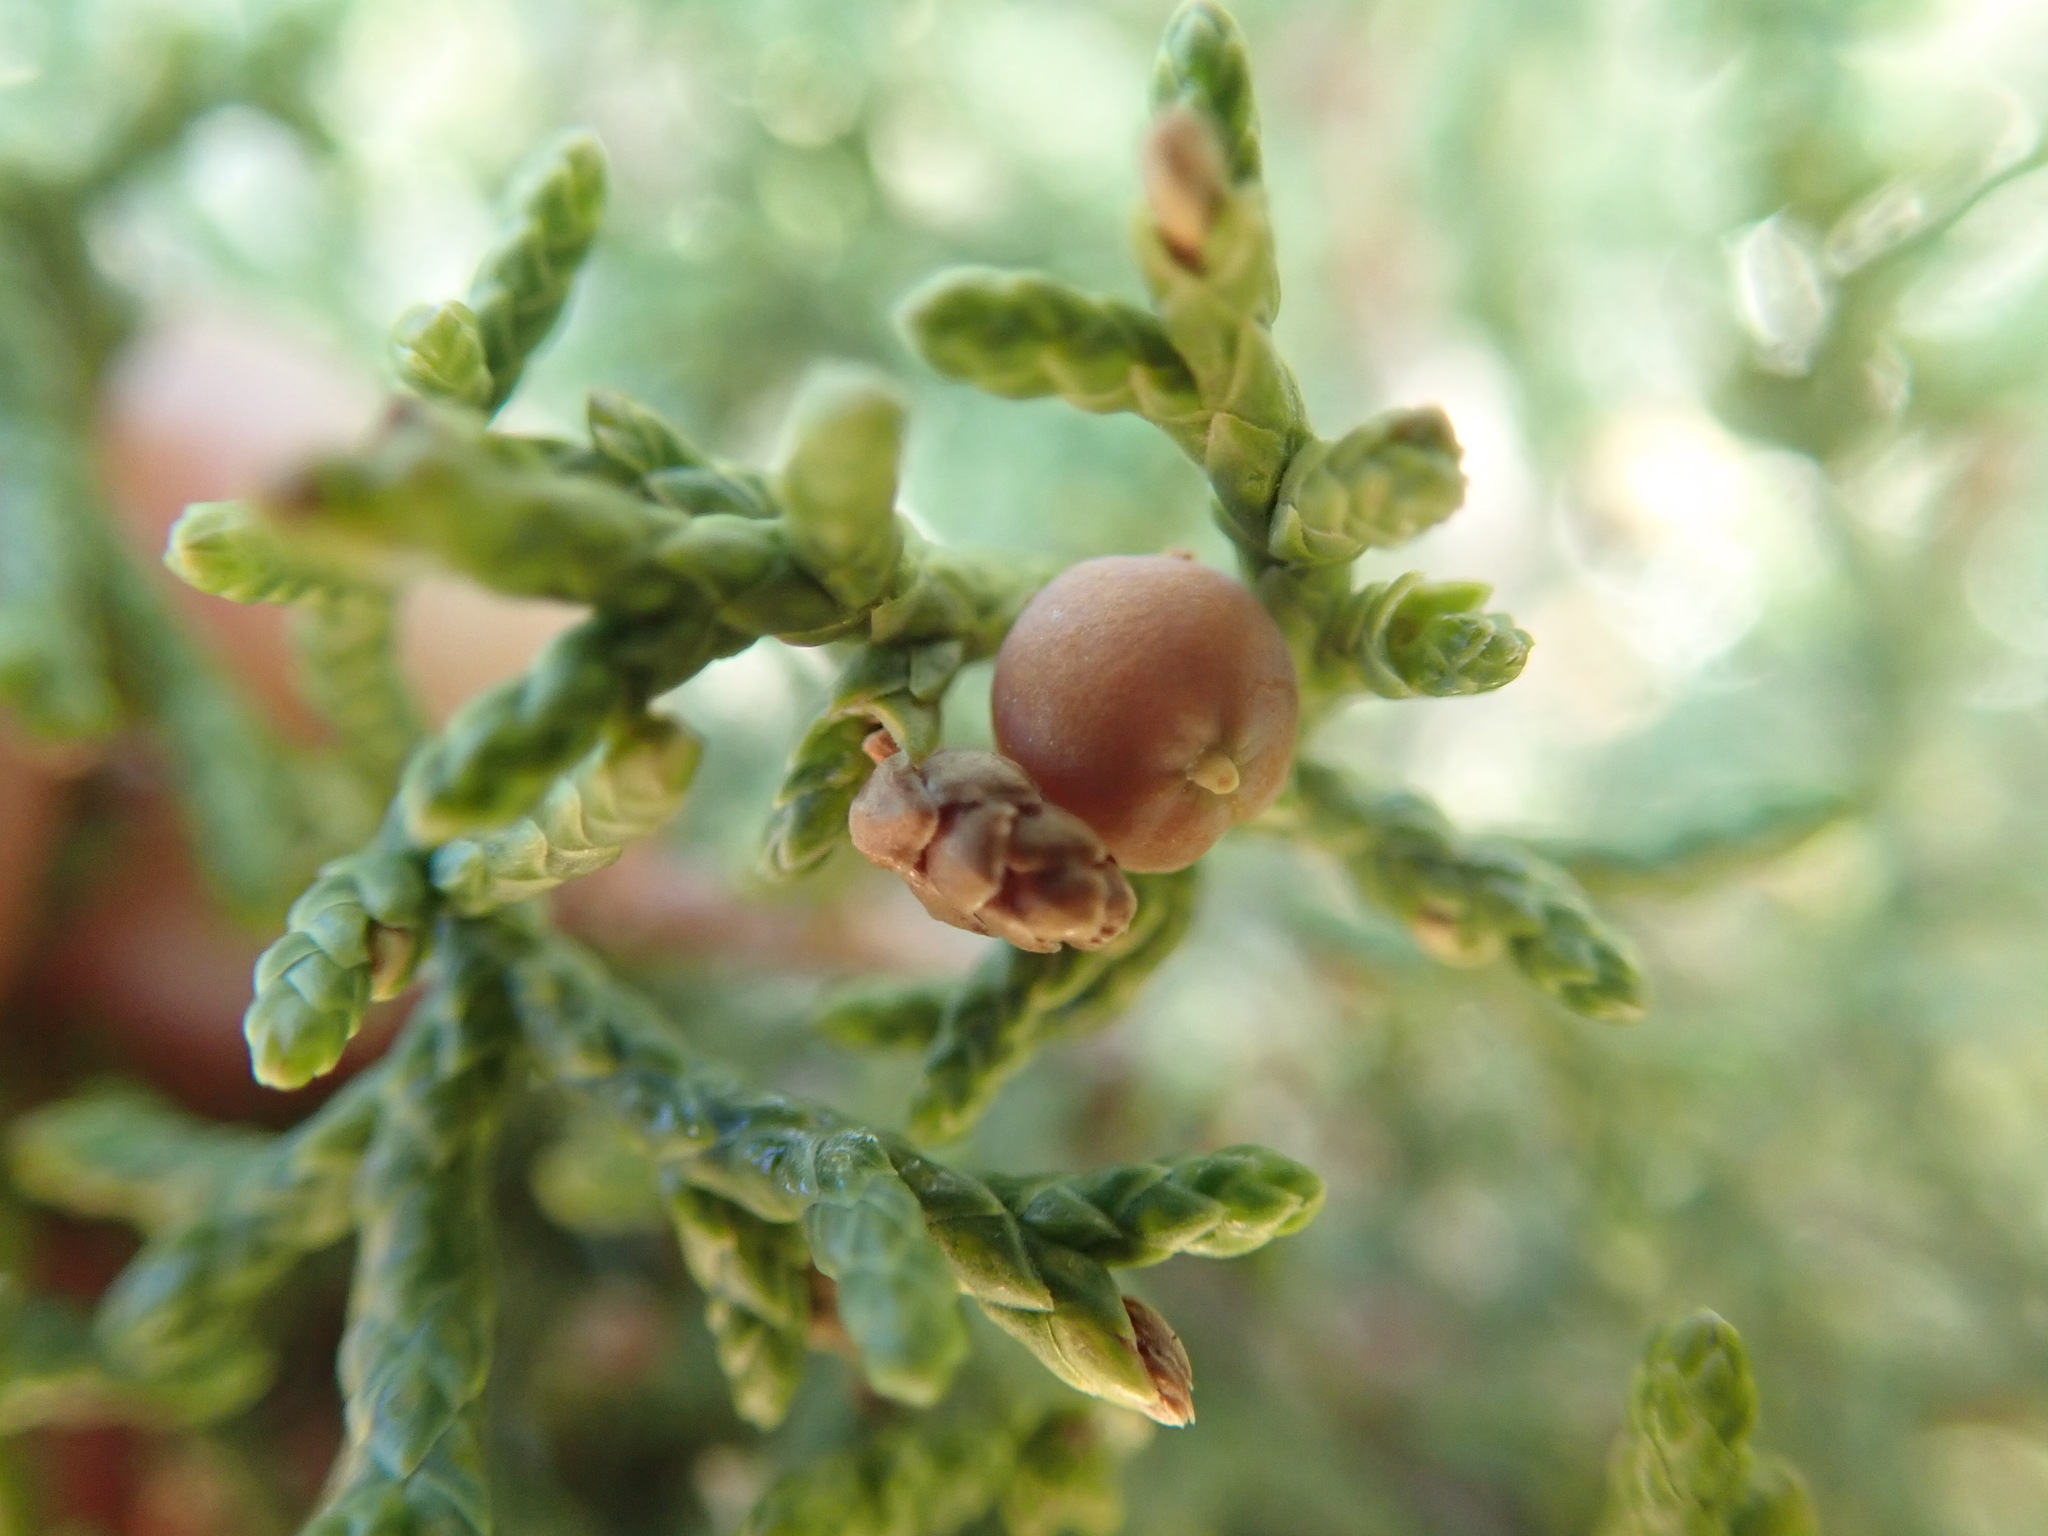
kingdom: Plantae
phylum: Tracheophyta
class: Pinopsida
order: Pinales
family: Cupressaceae
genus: Juniperus
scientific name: Juniperus californica
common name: California juniper
